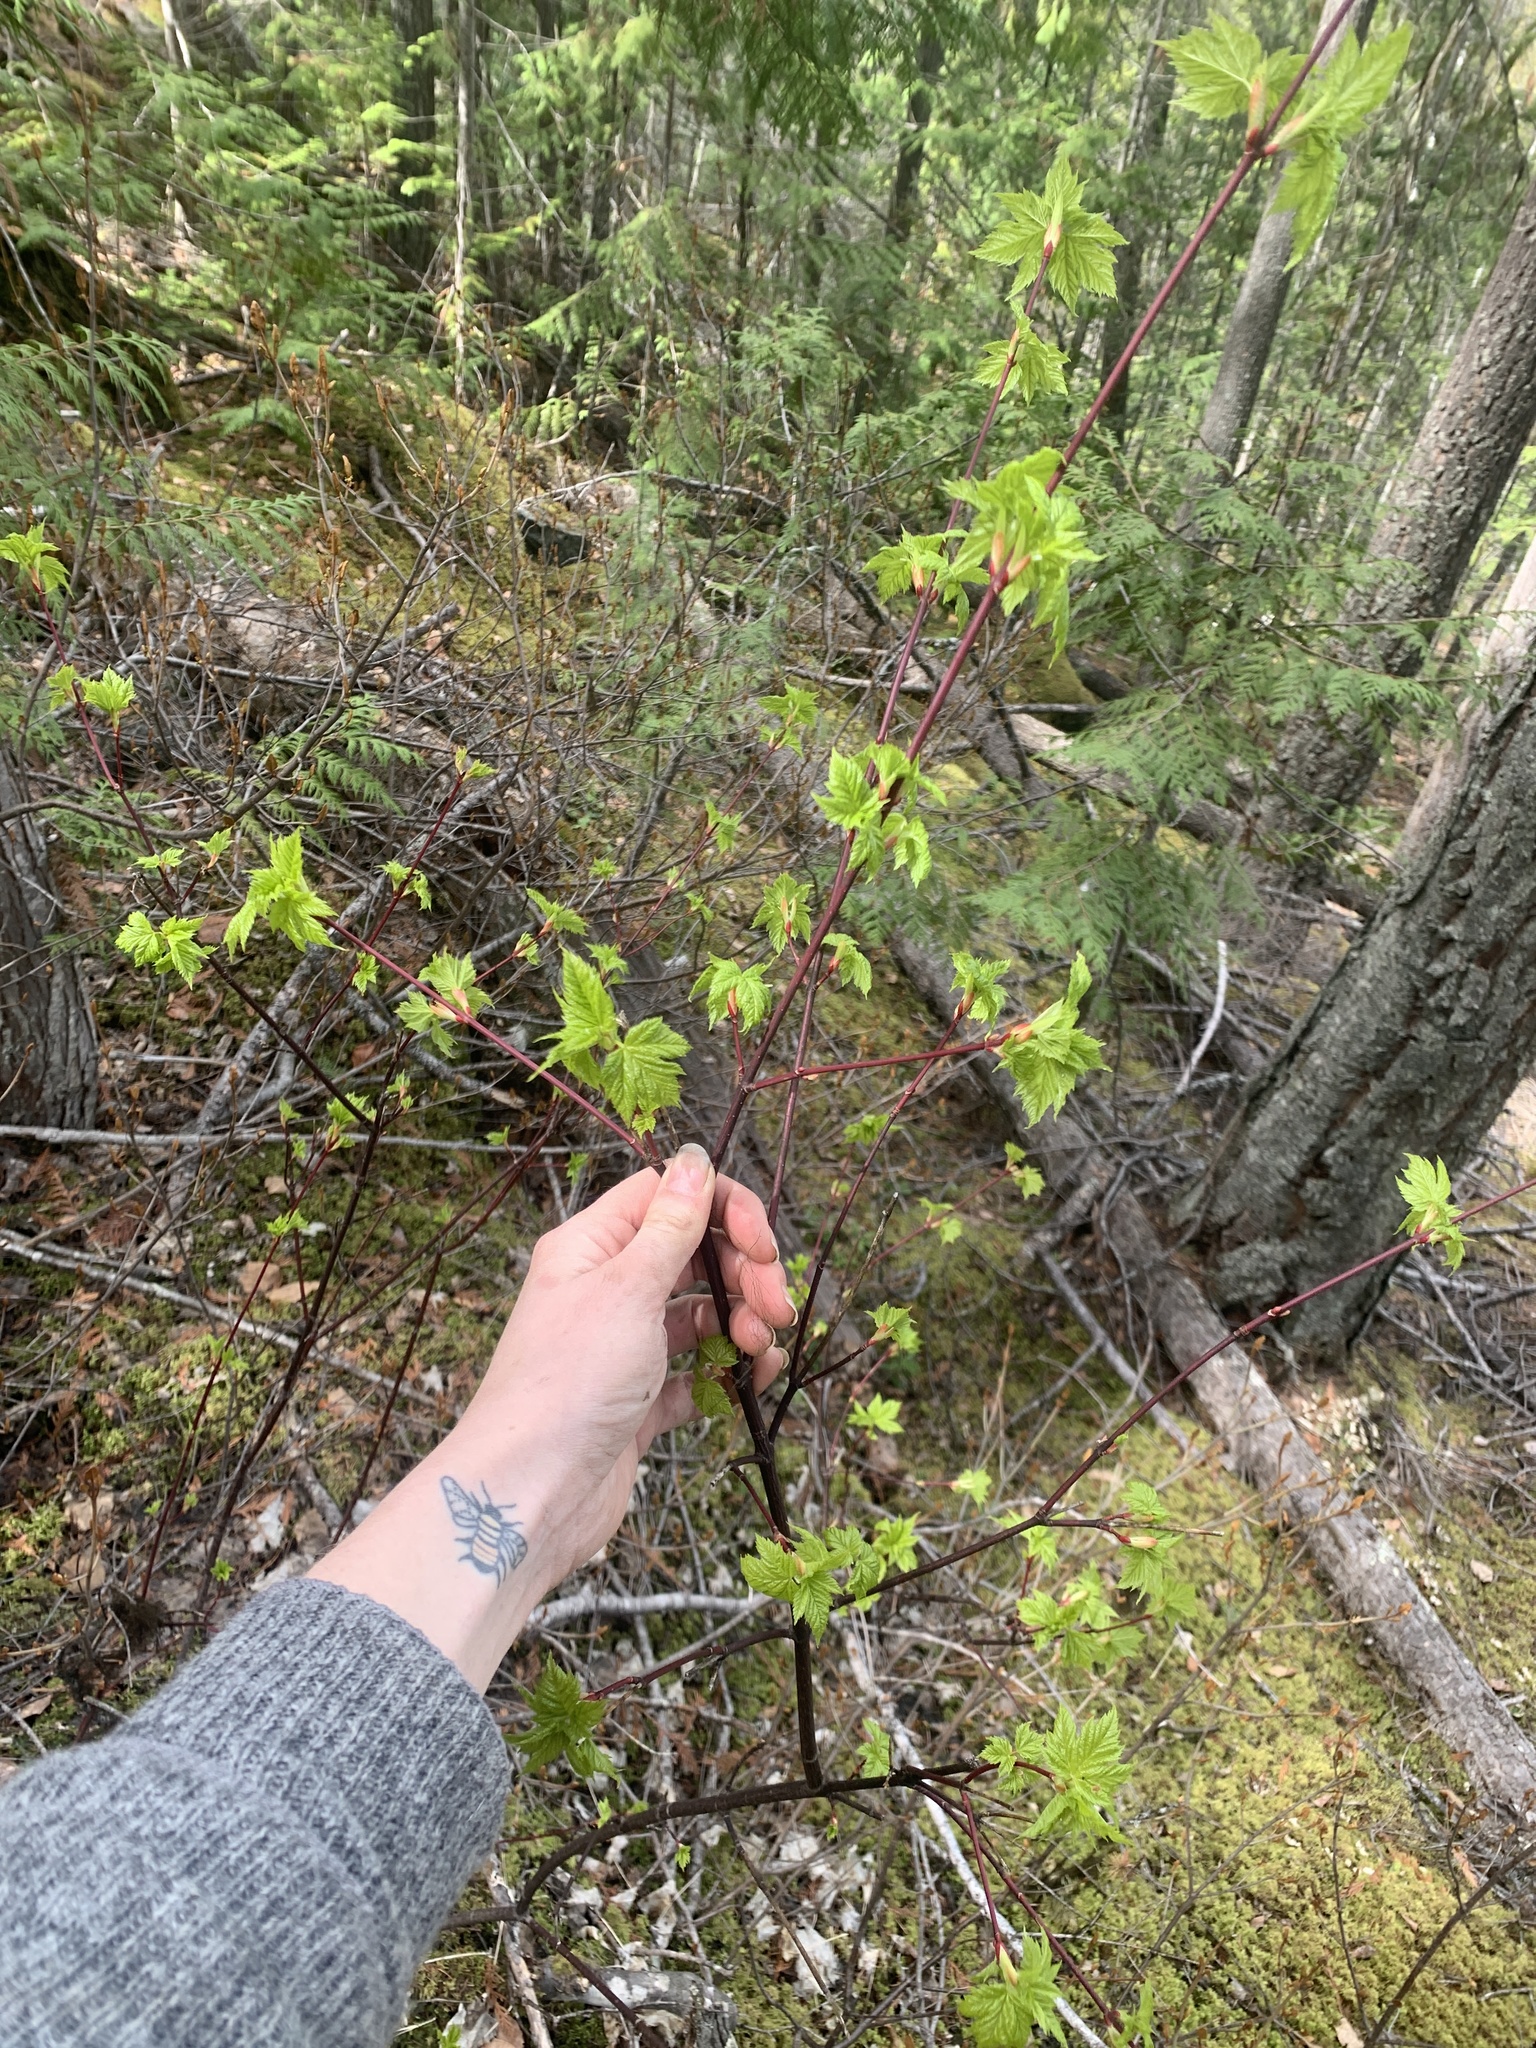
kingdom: Plantae
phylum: Tracheophyta
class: Magnoliopsida
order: Sapindales
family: Sapindaceae
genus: Acer
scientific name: Acer glabrum
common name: Rocky mountain maple
